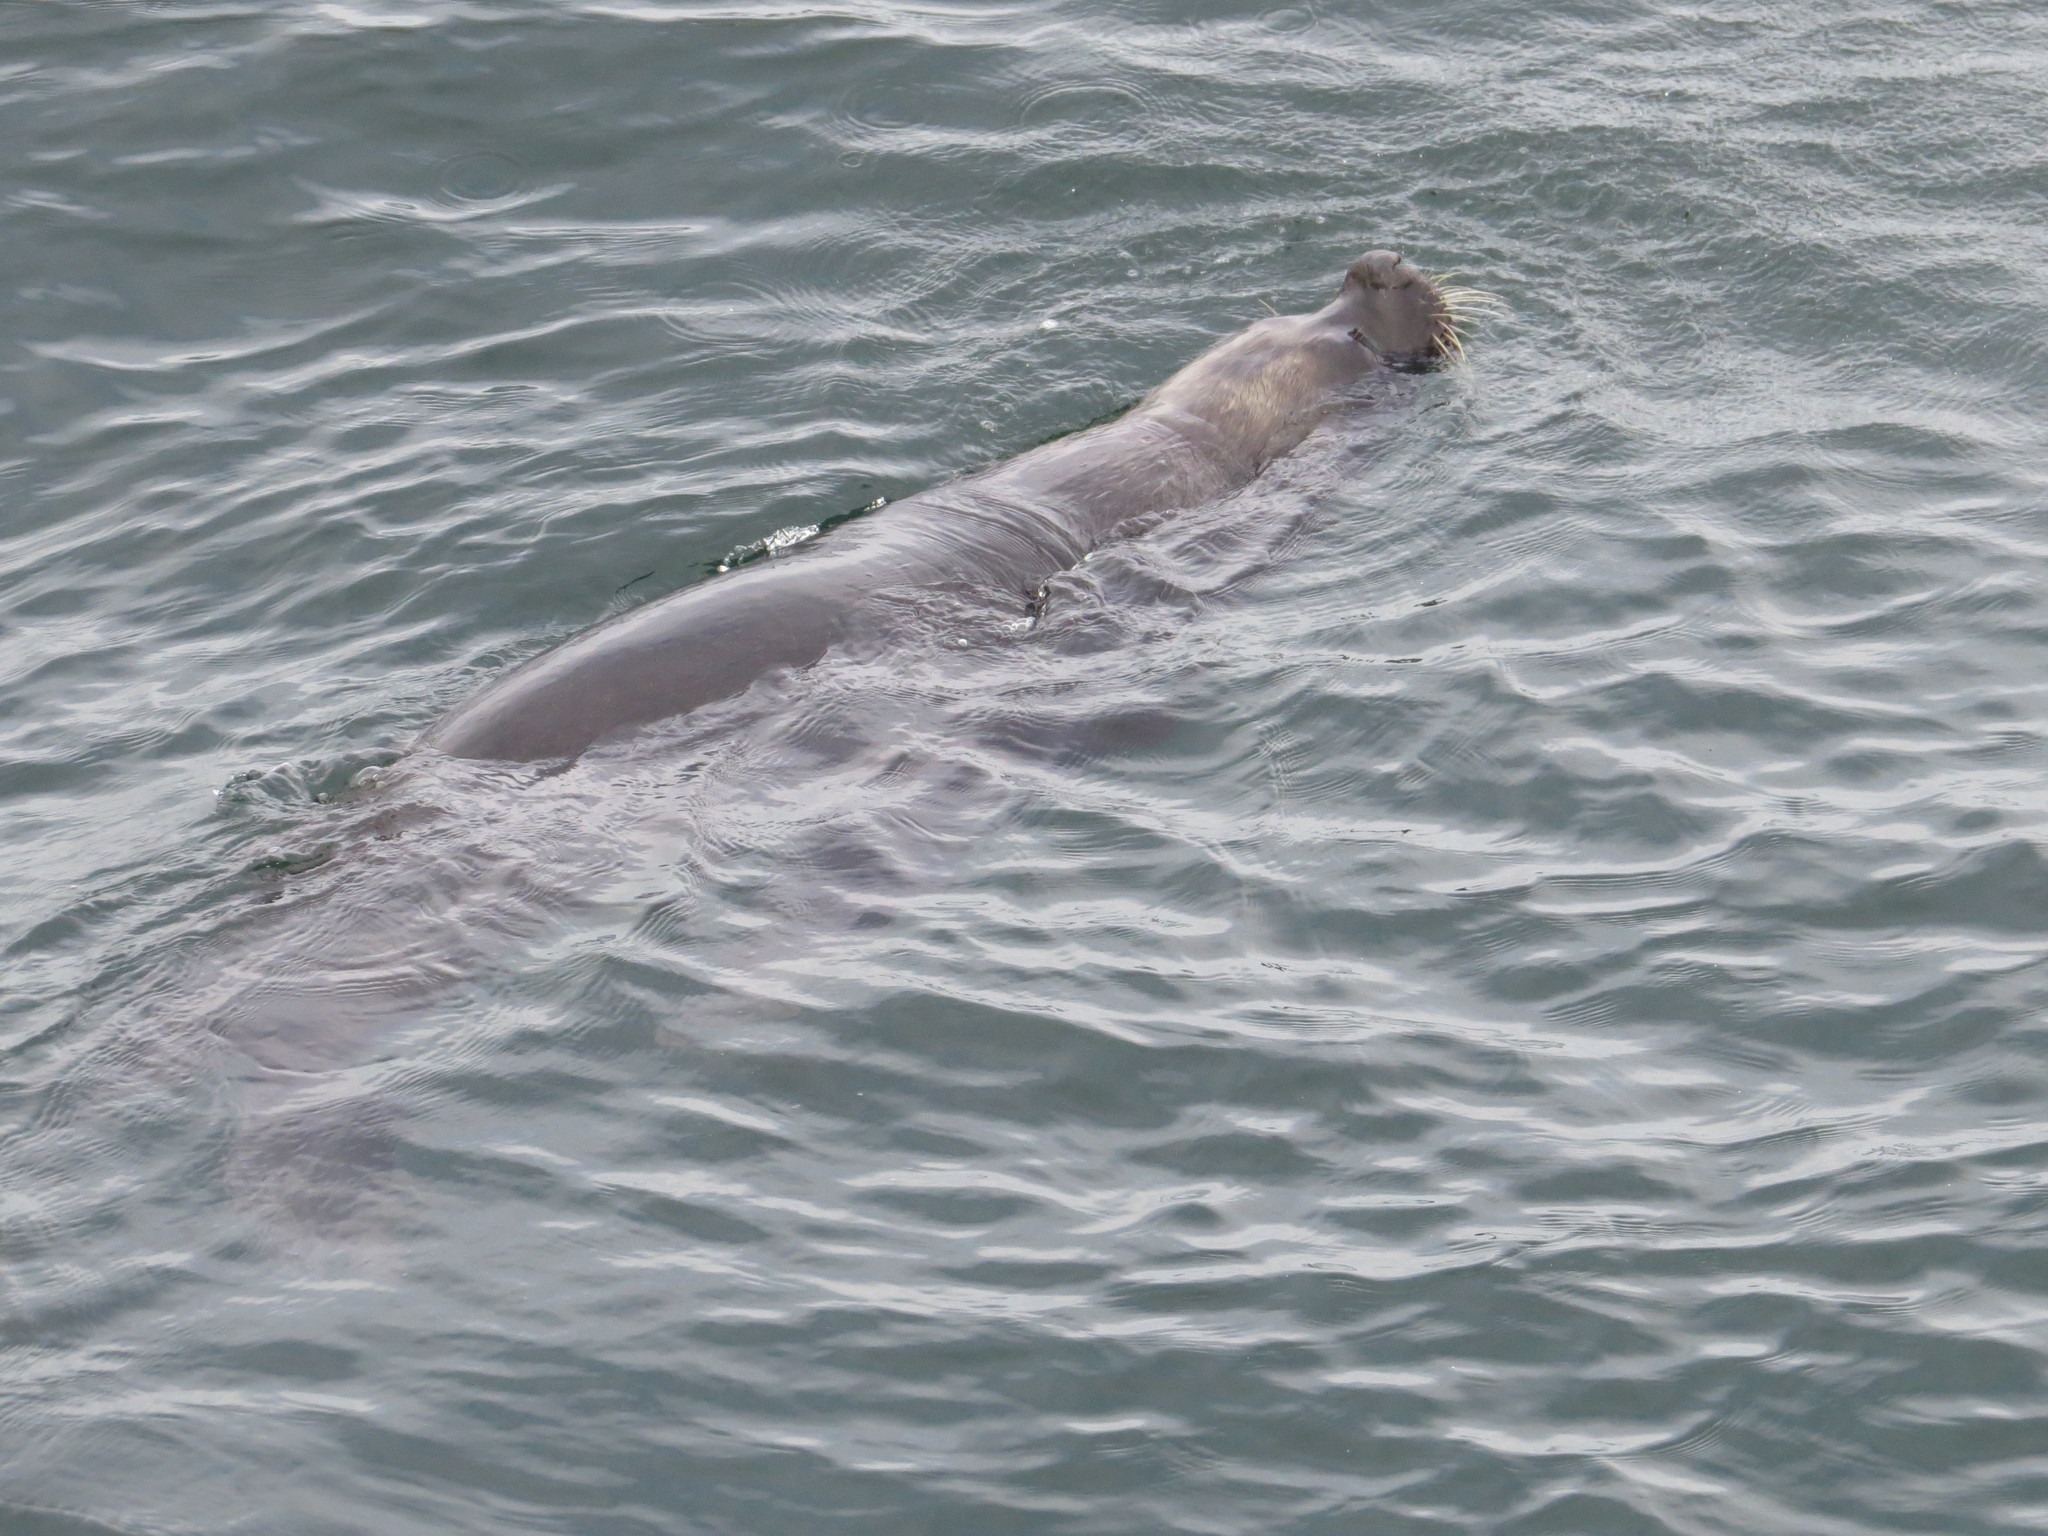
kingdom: Animalia
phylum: Chordata
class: Mammalia
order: Carnivora
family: Otariidae
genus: Otaria
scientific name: Otaria byronia
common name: South american sea lion
